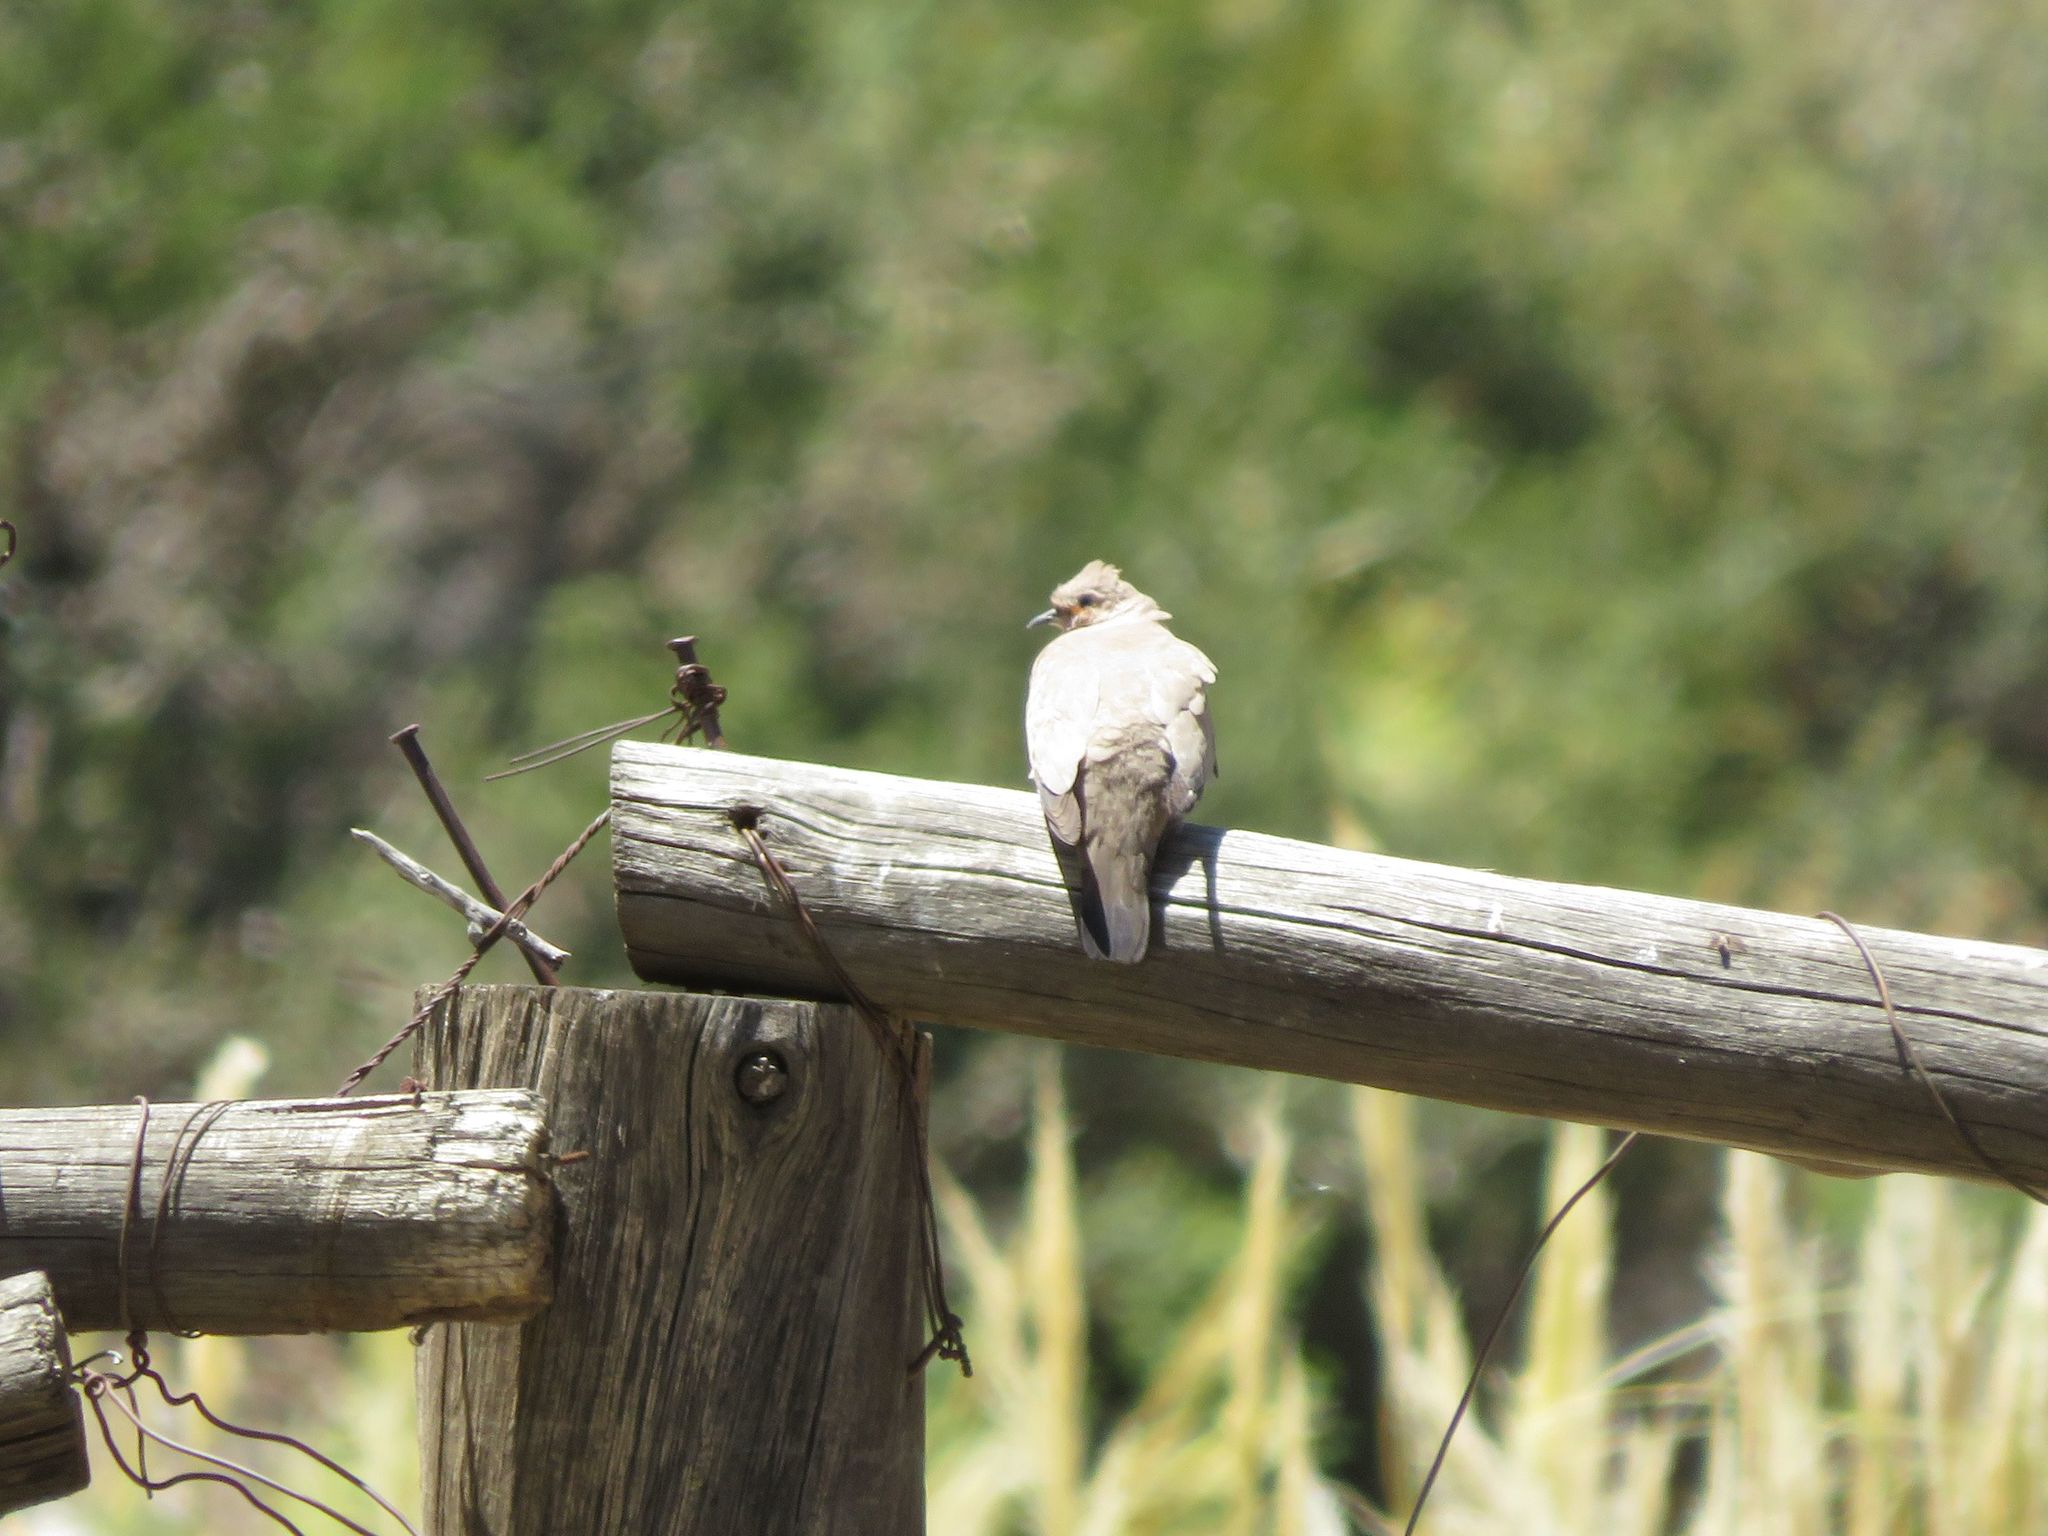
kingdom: Animalia
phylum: Chordata
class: Aves
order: Columbiformes
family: Columbidae
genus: Metriopelia
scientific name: Metriopelia melanoptera
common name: Black-winged ground dove
